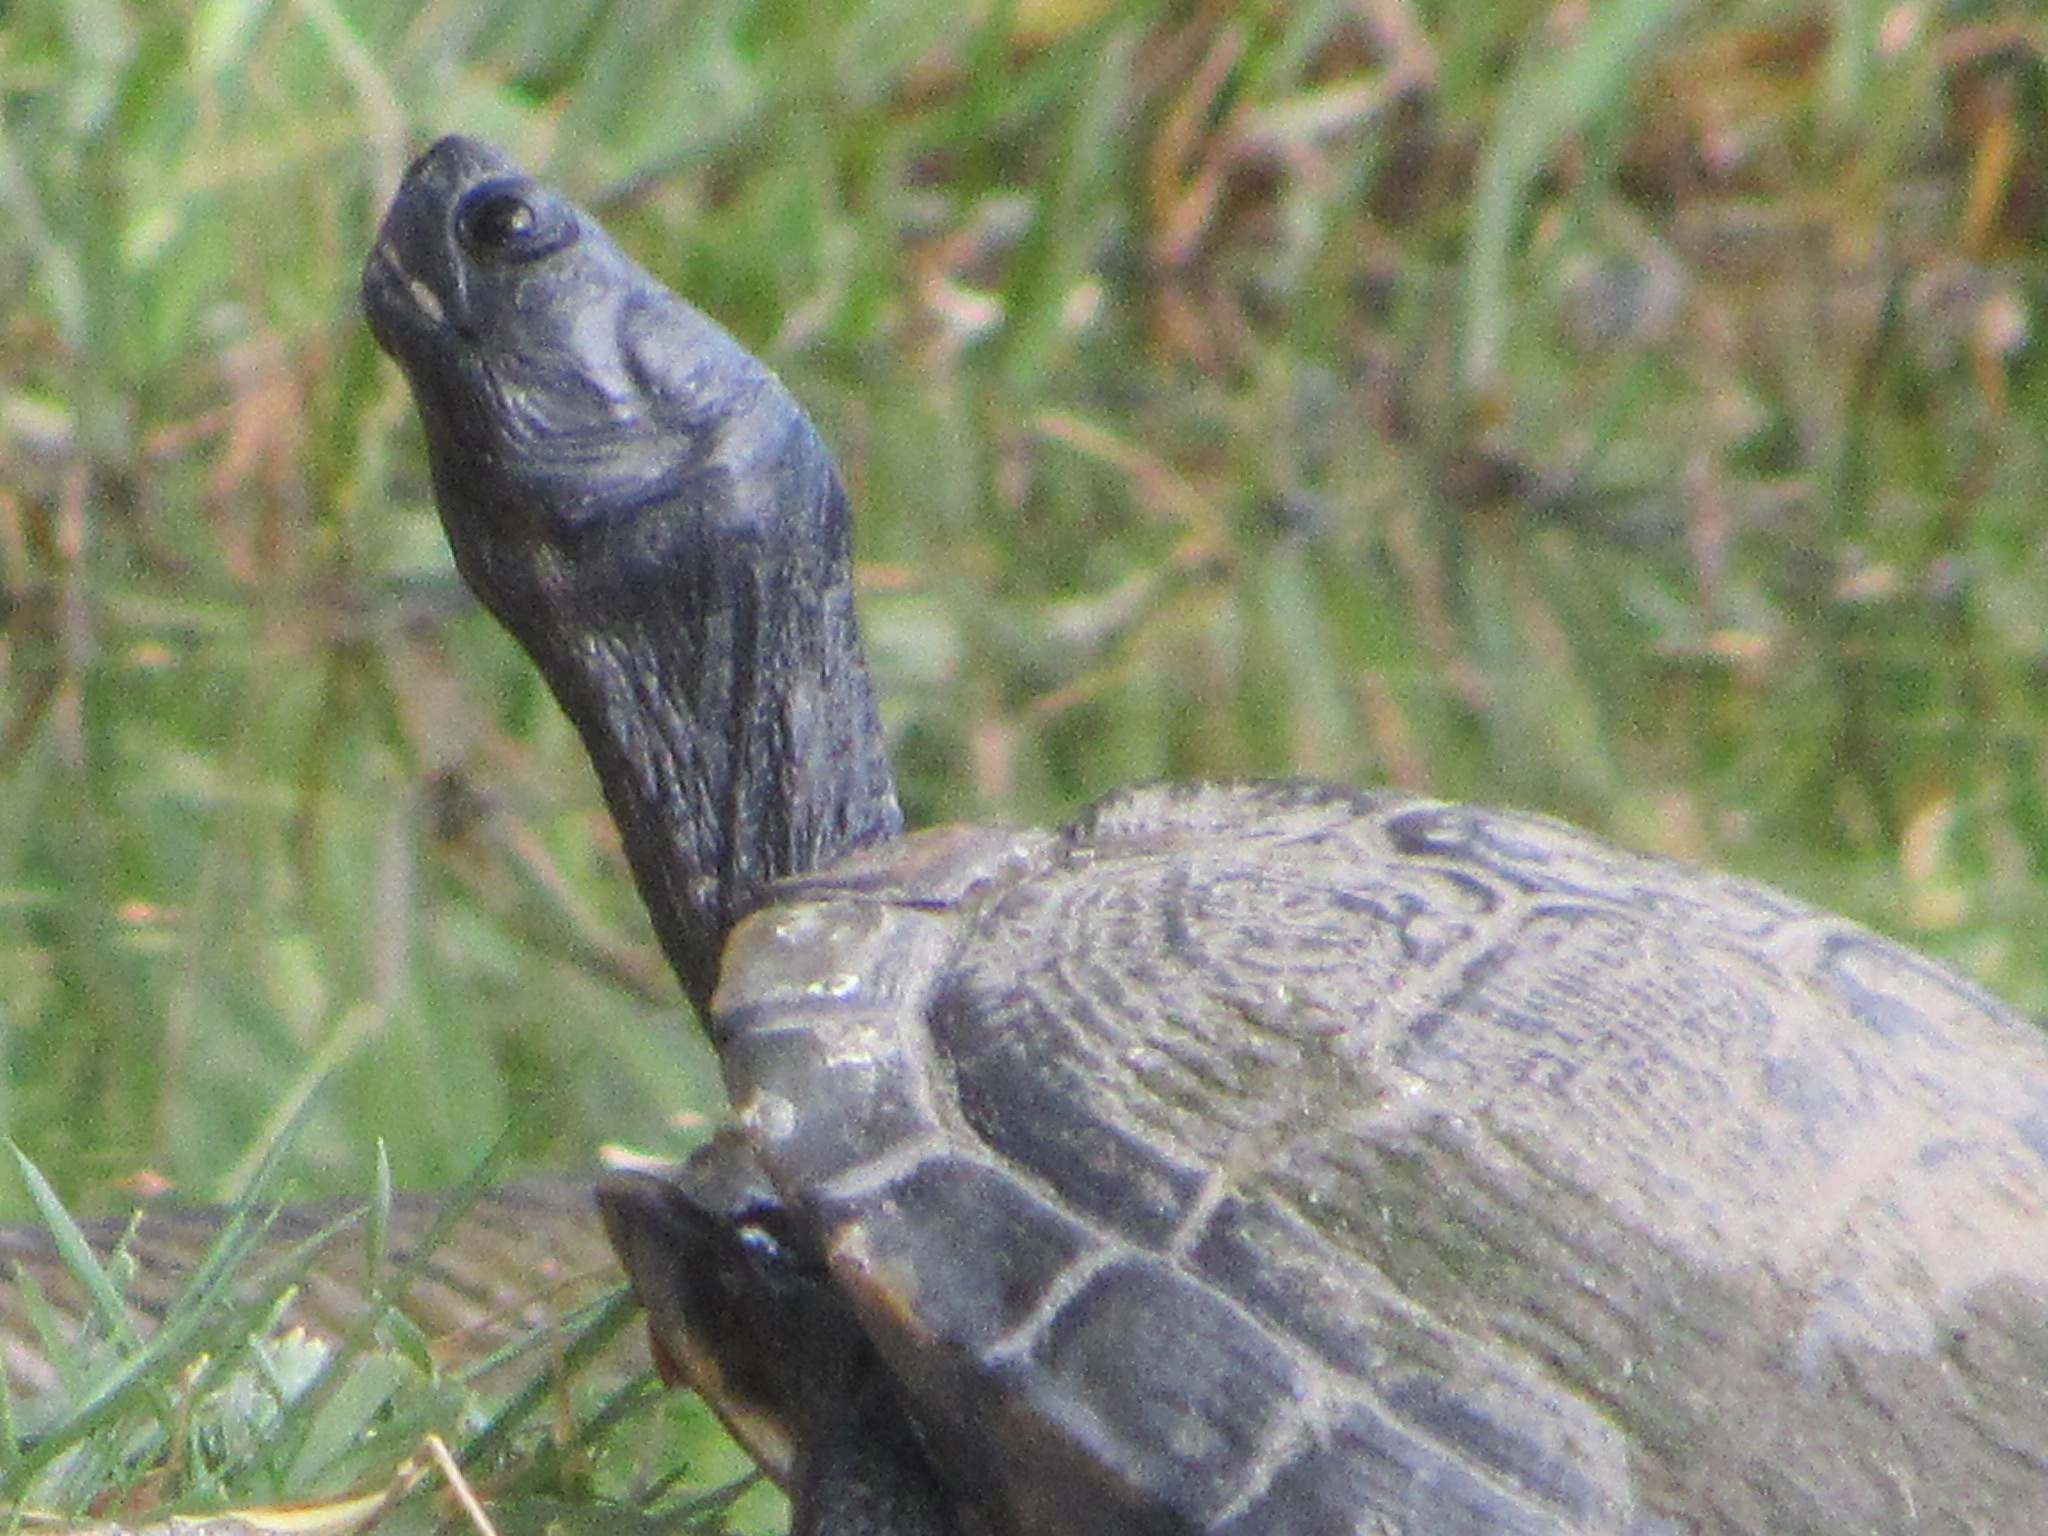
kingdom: Animalia
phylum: Chordata
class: Testudines
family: Emydidae
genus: Trachemys
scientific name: Trachemys scripta
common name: Slider
